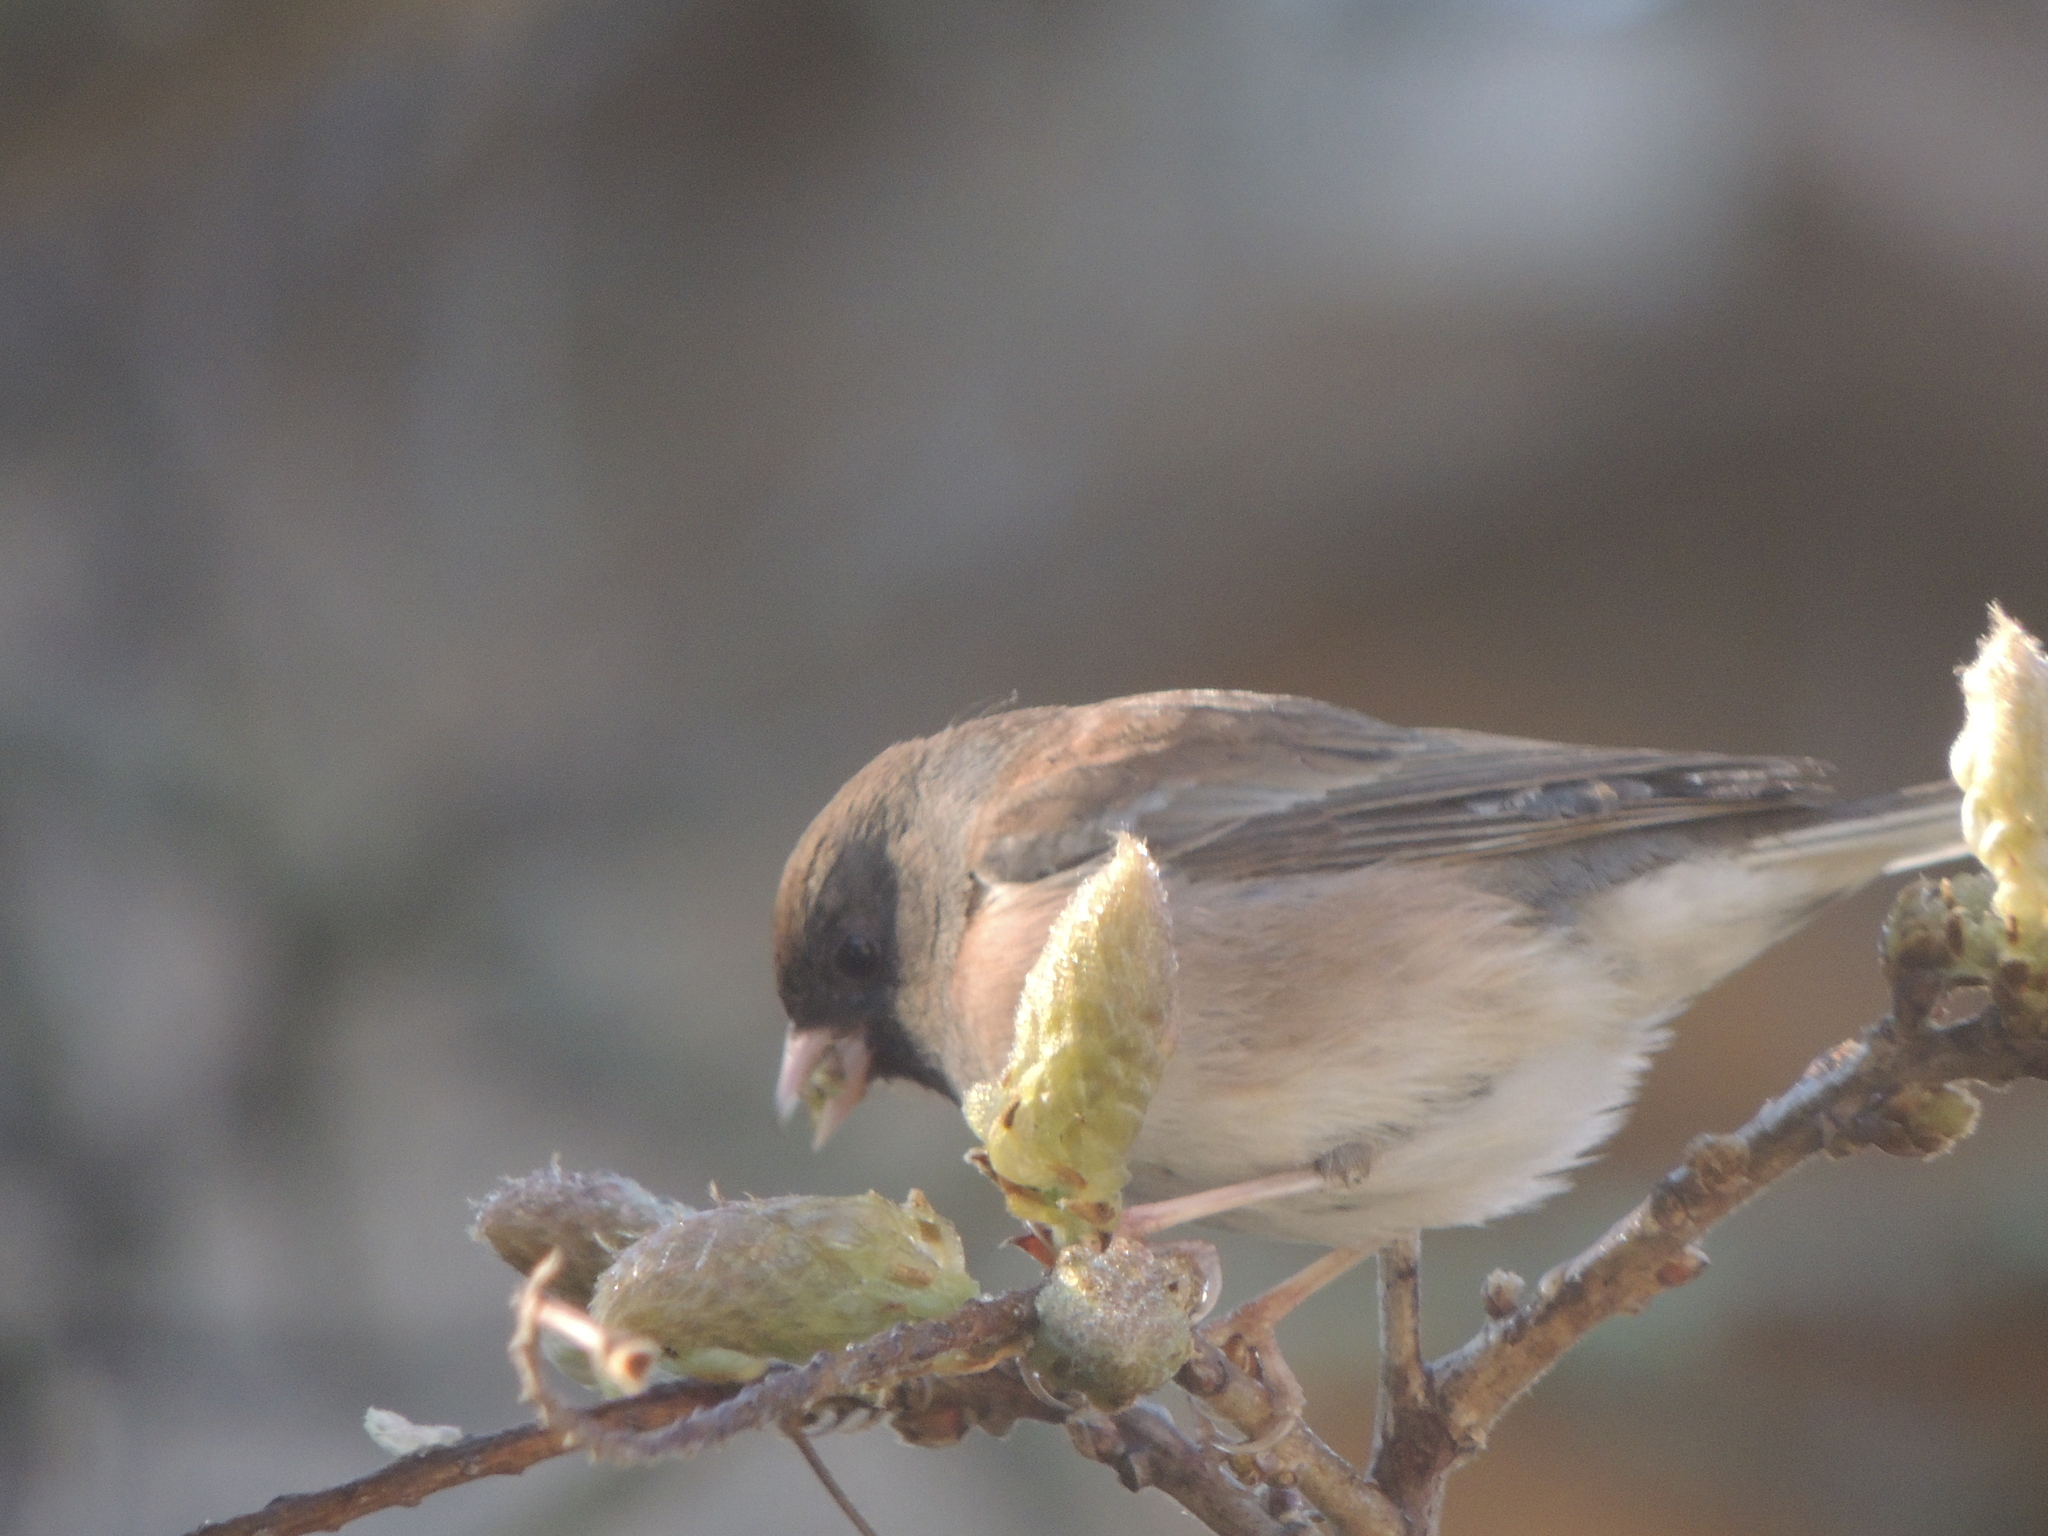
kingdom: Animalia
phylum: Chordata
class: Aves
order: Passeriformes
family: Passerellidae
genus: Junco
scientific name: Junco hyemalis
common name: Dark-eyed junco
